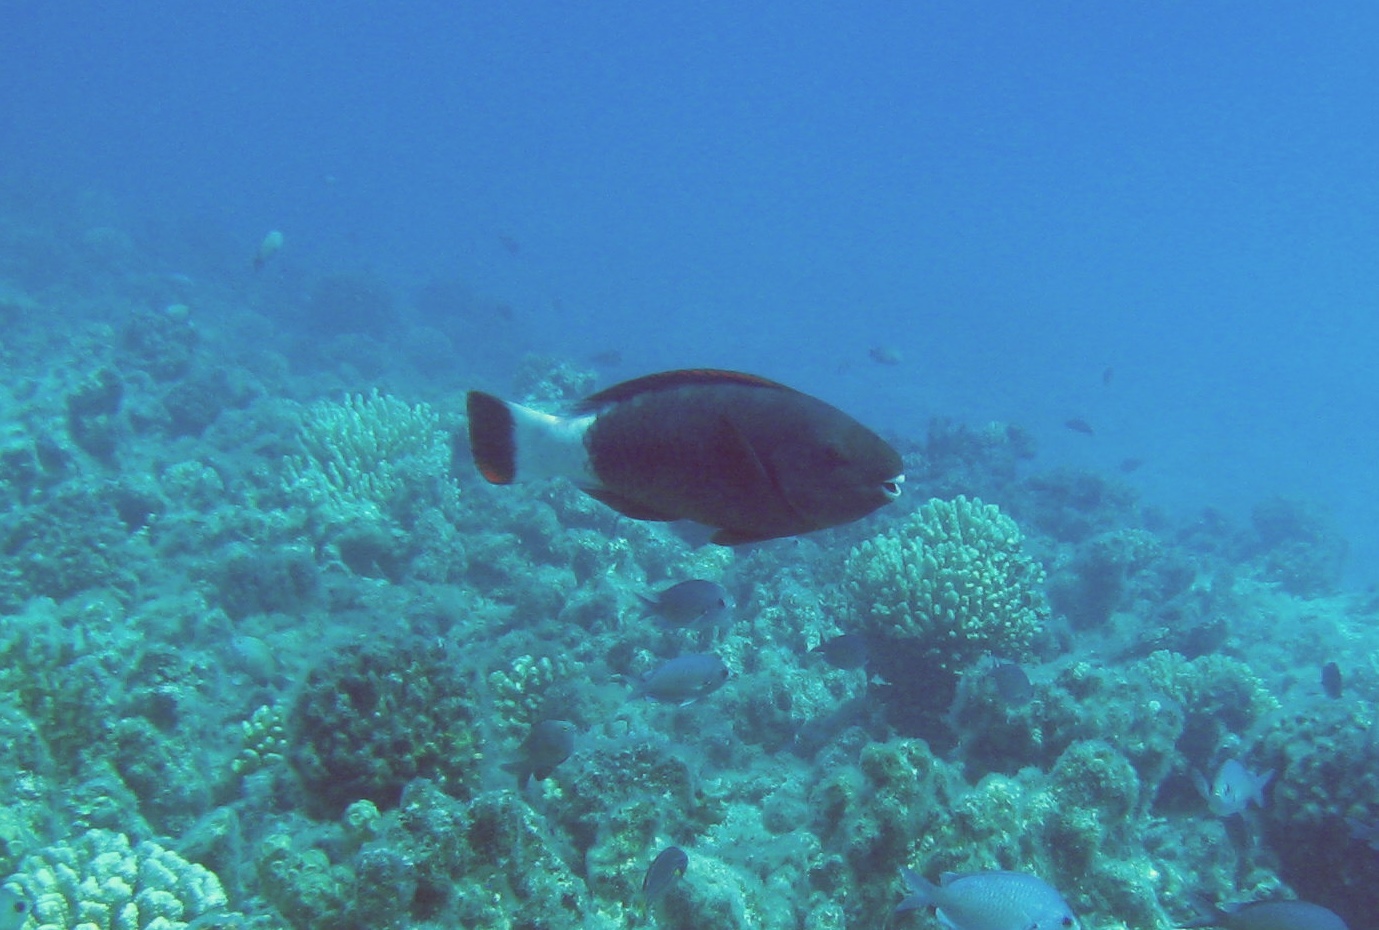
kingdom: Animalia
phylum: Chordata
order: Perciformes
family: Scaridae
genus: Chlorurus
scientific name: Chlorurus perspicillatus
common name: Spectacled parrotfish
